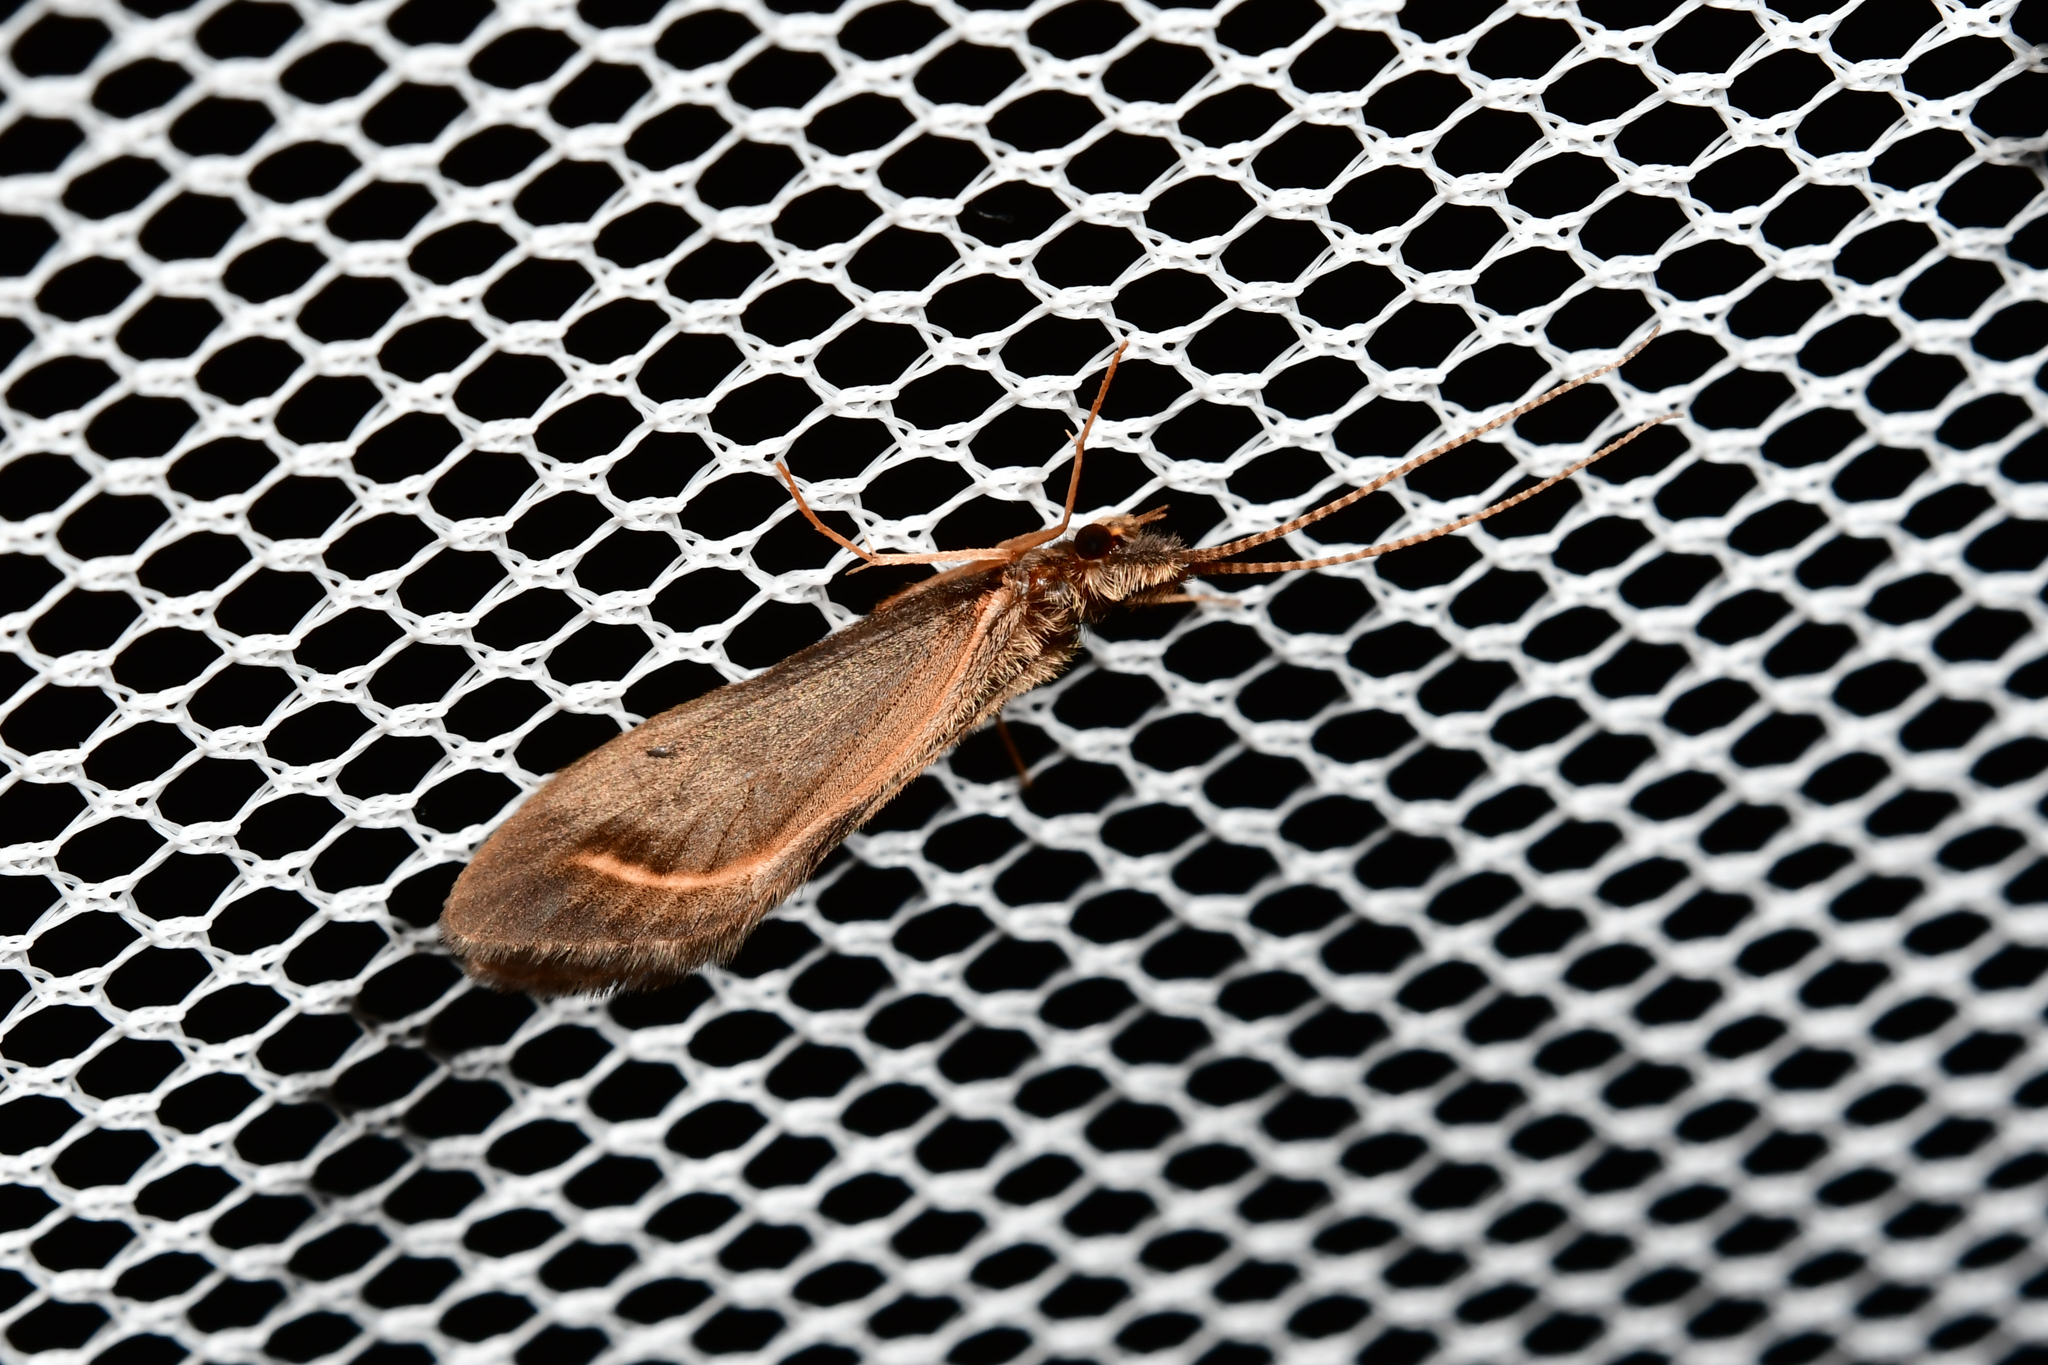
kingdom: Animalia
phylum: Arthropoda
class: Insecta
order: Trichoptera
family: Conoesucidae
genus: Olinga
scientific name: Olinga feredayi
